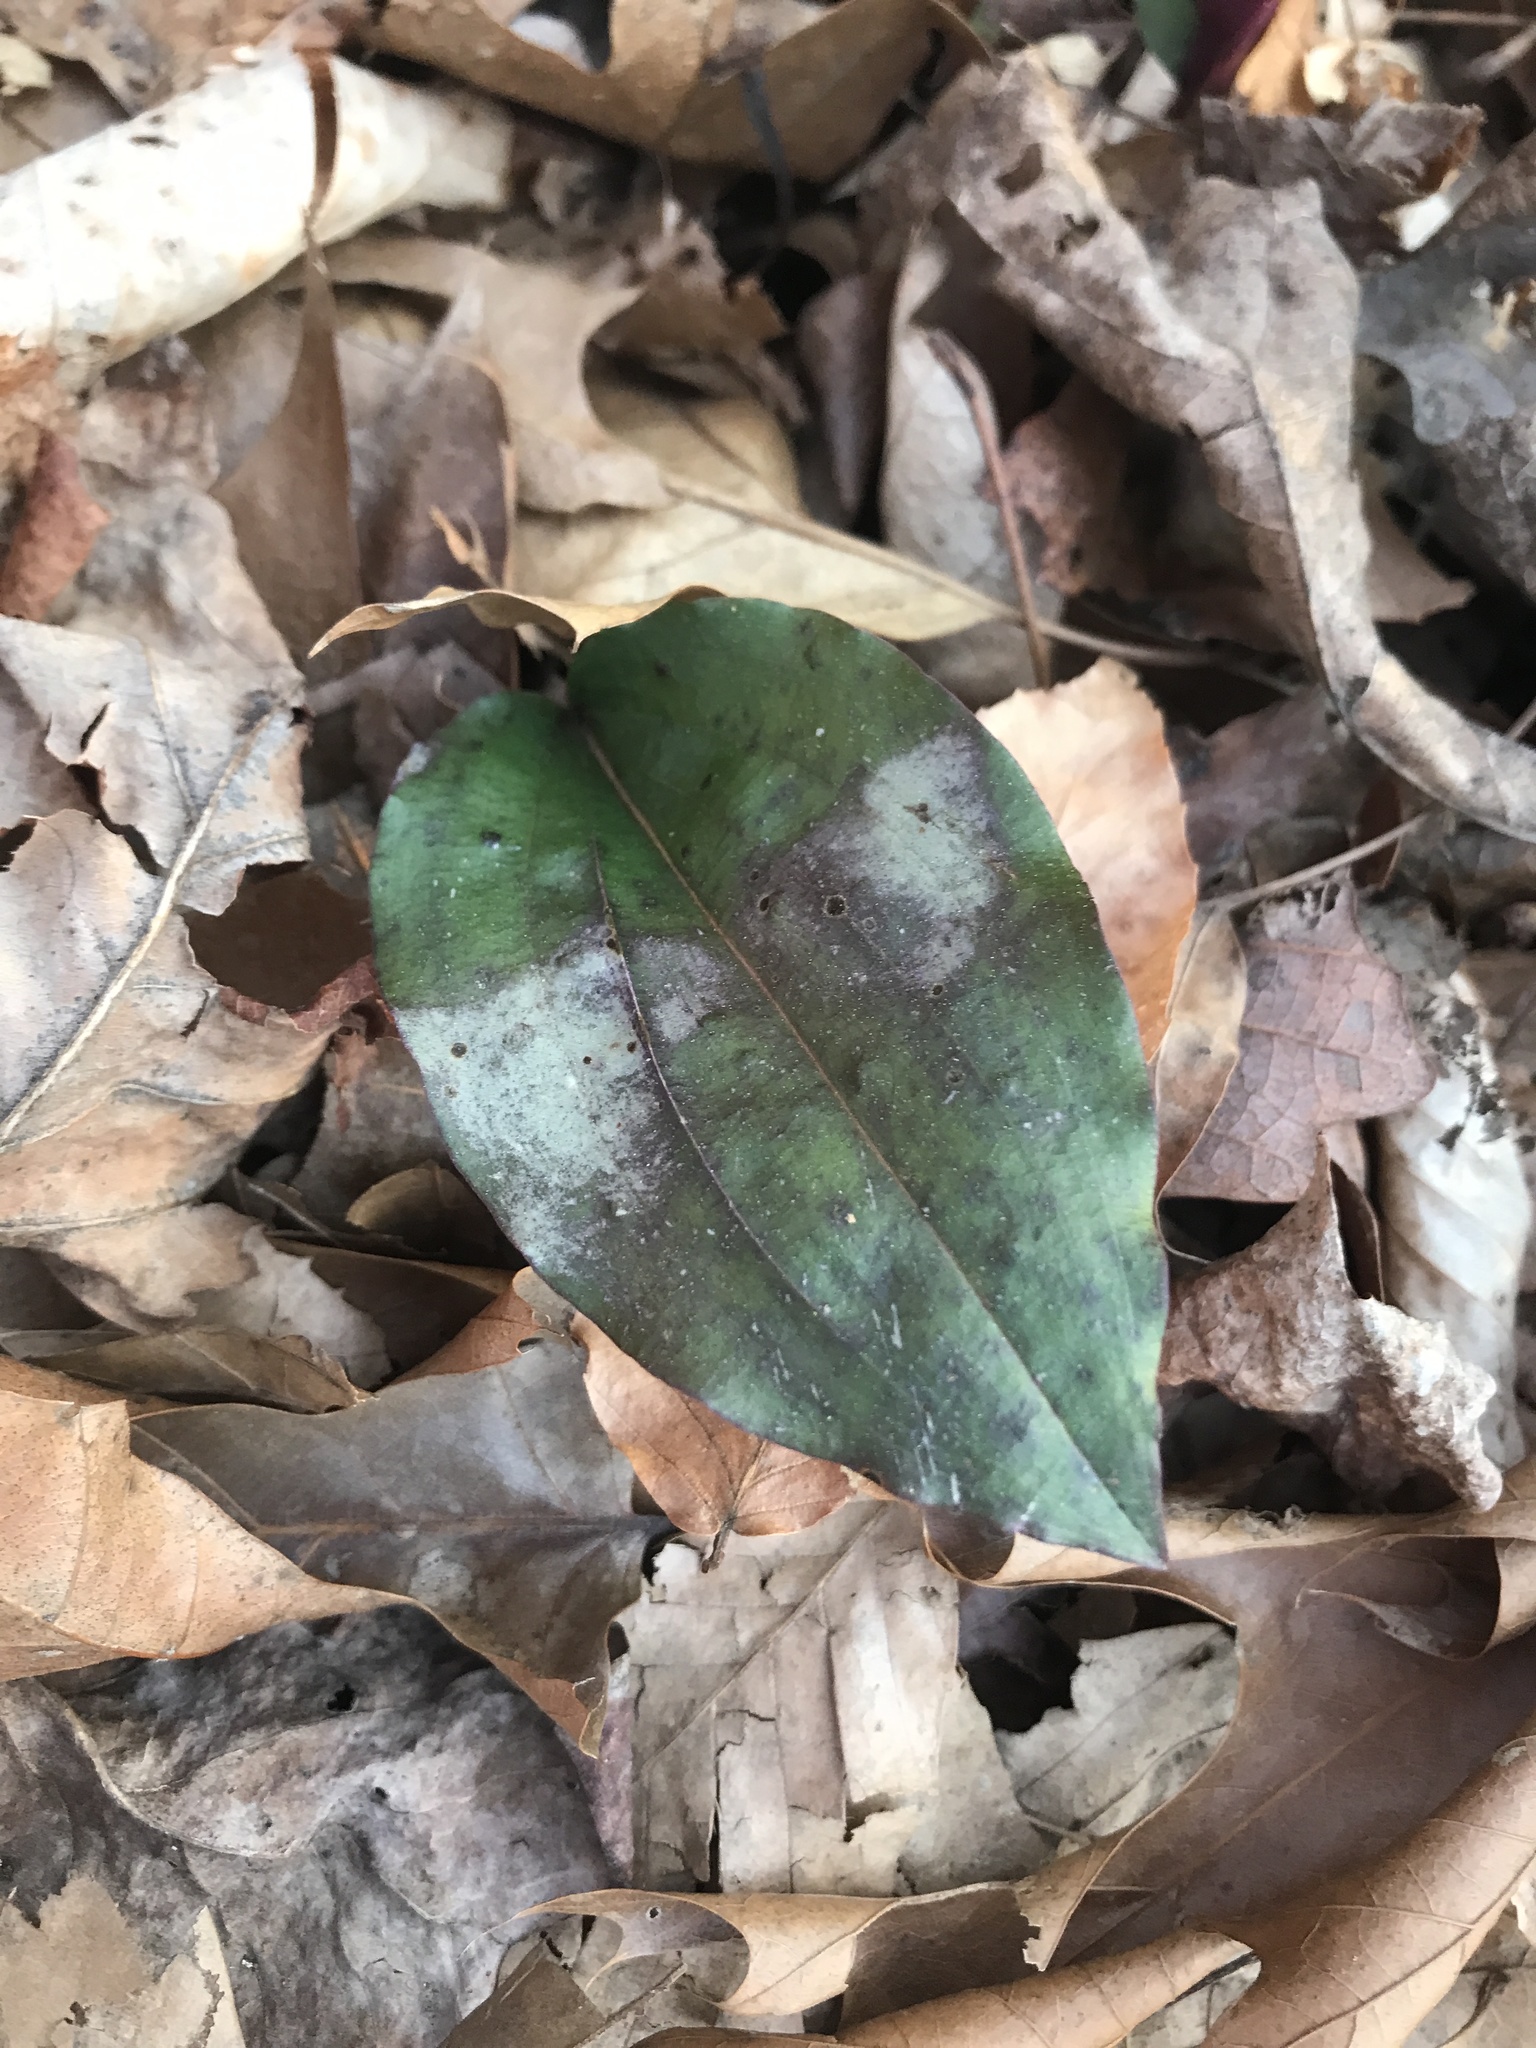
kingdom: Plantae
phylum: Tracheophyta
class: Liliopsida
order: Asparagales
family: Orchidaceae
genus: Tipularia
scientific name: Tipularia discolor
